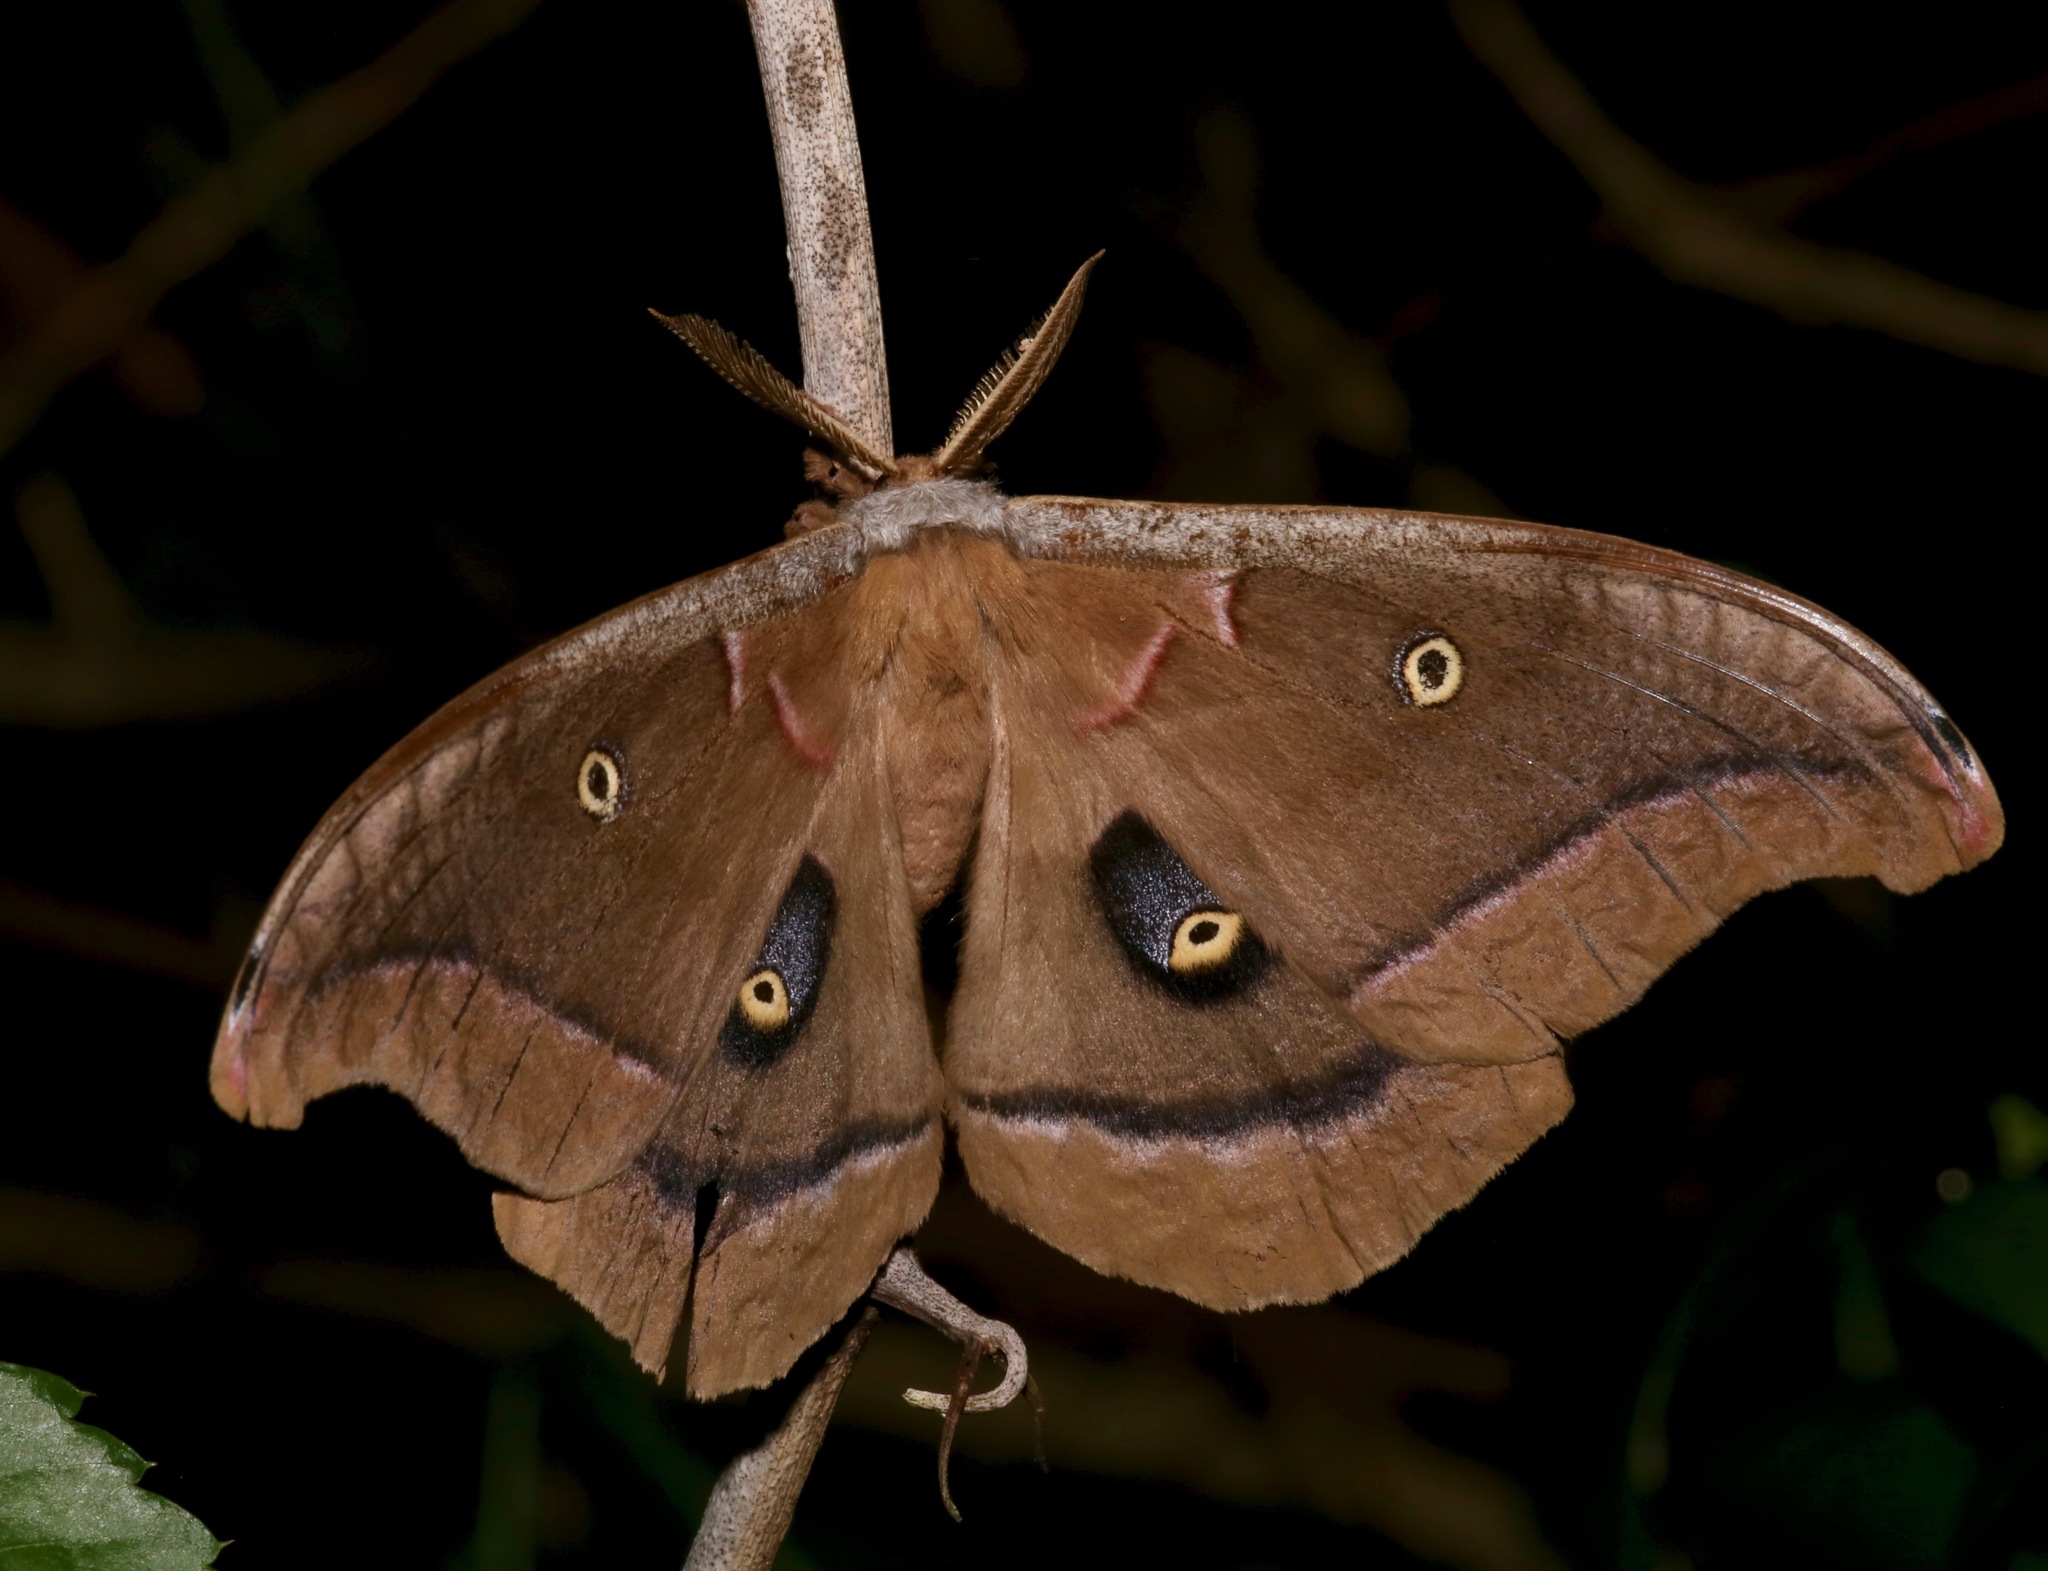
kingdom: Animalia
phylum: Arthropoda
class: Insecta
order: Lepidoptera
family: Saturniidae
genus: Antheraea
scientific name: Antheraea polyphemus
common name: Polyphemus moth
